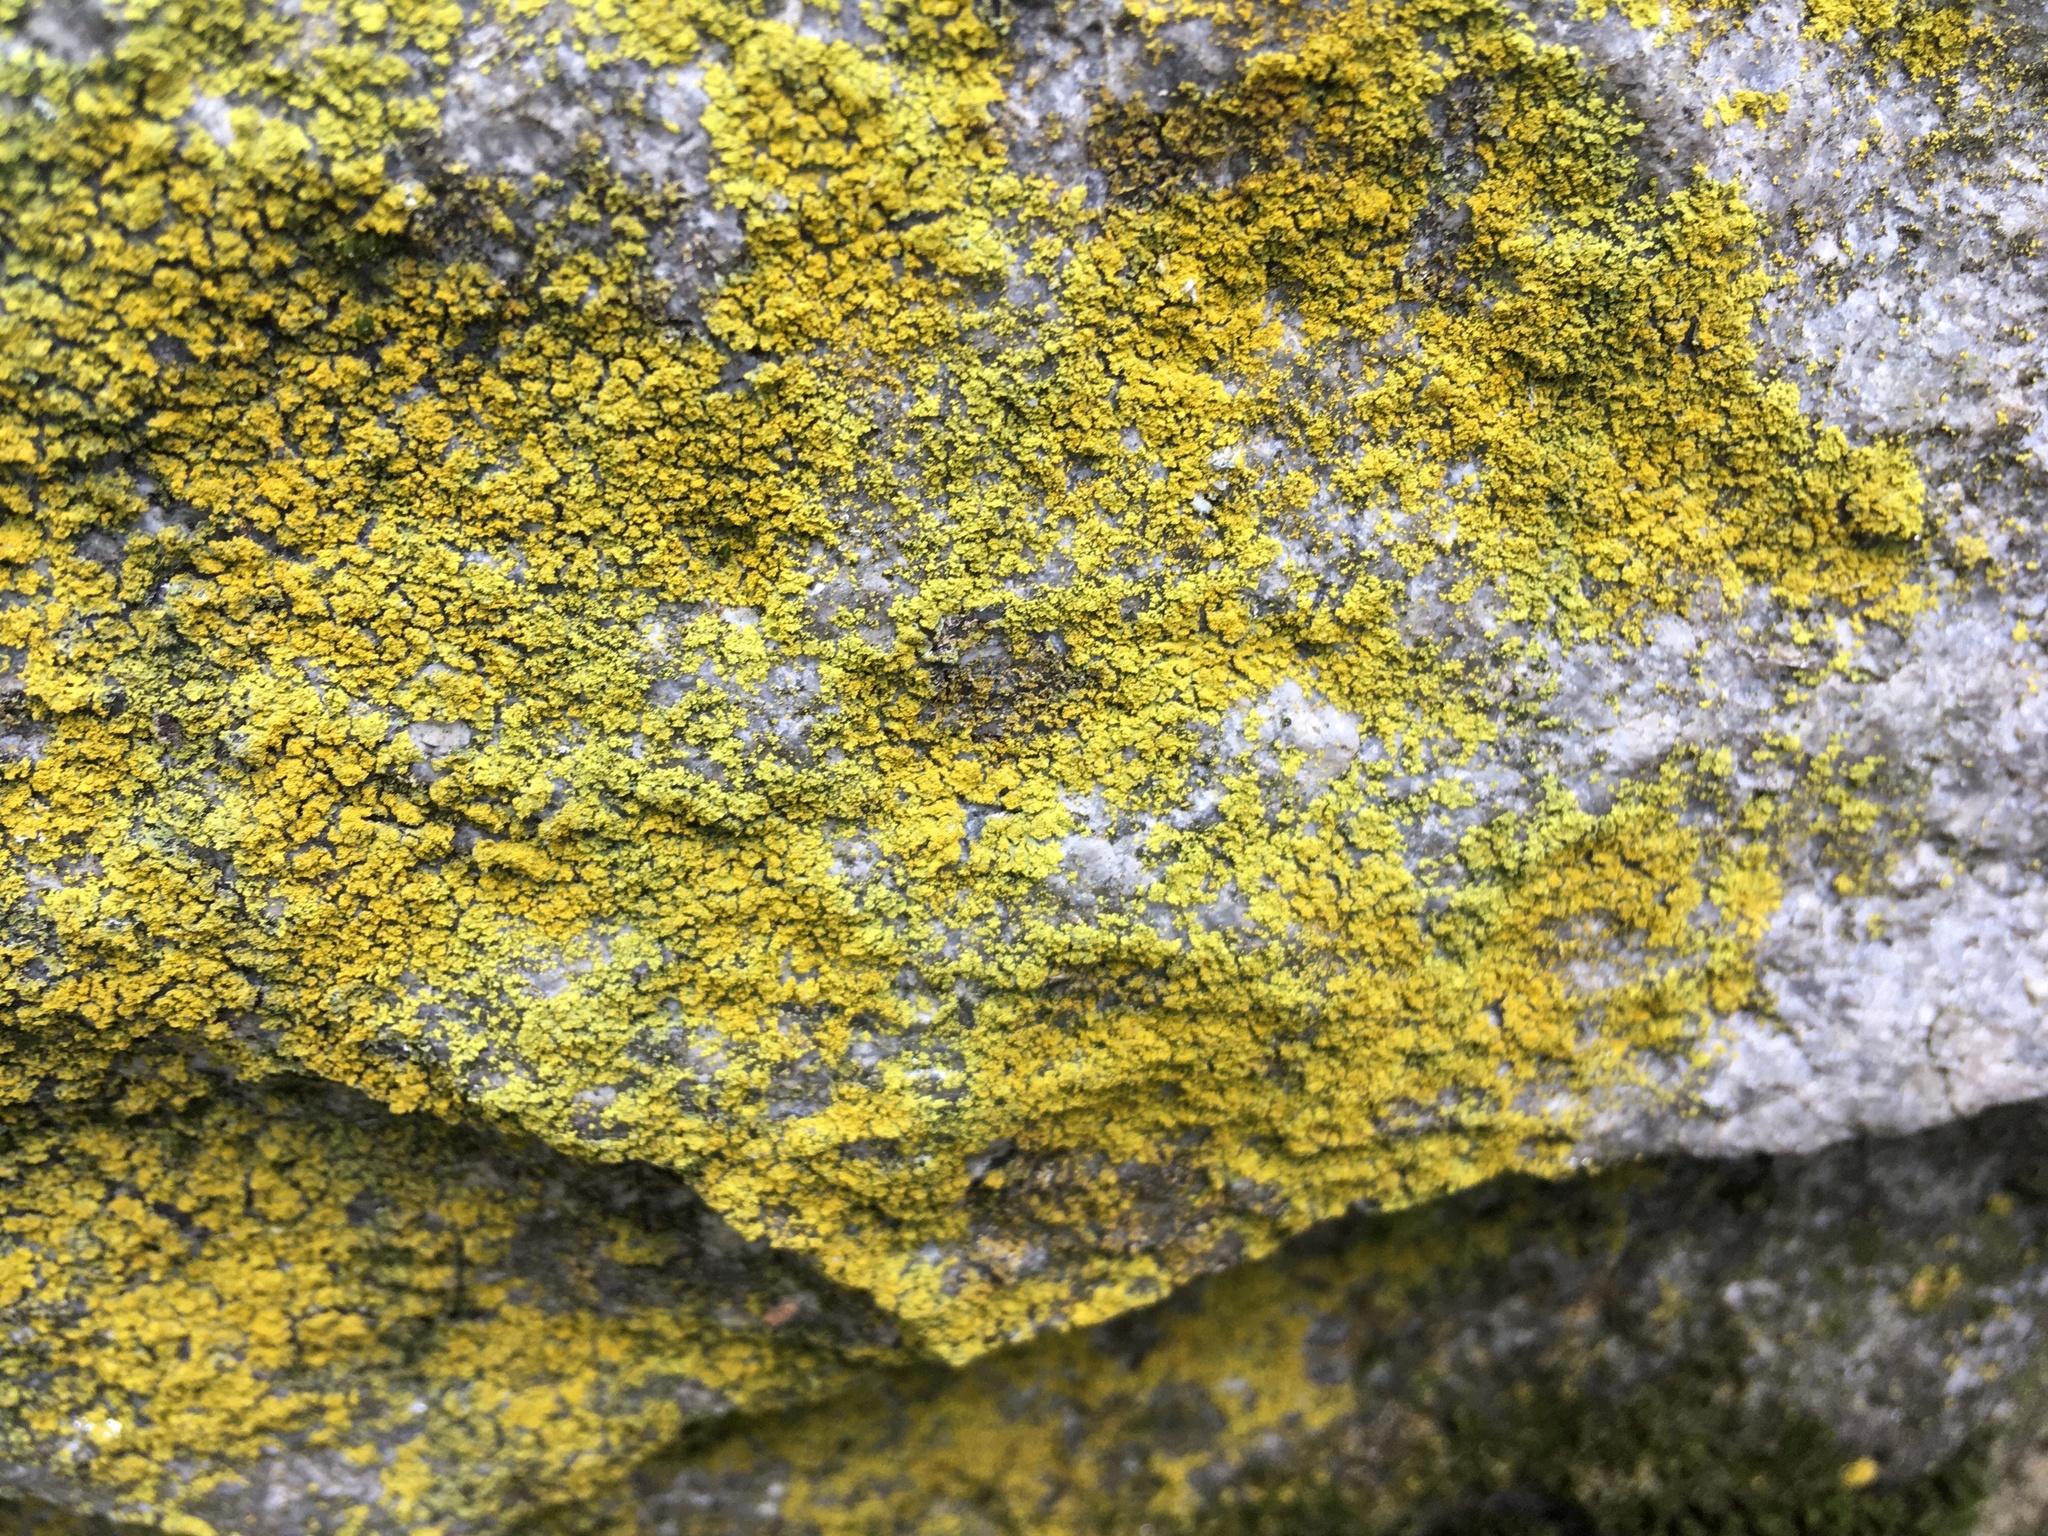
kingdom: Fungi
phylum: Ascomycota
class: Candelariomycetes
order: Candelariales
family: Candelariaceae
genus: Candelaria
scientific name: Candelaria concolor
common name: Candleflame lichen
